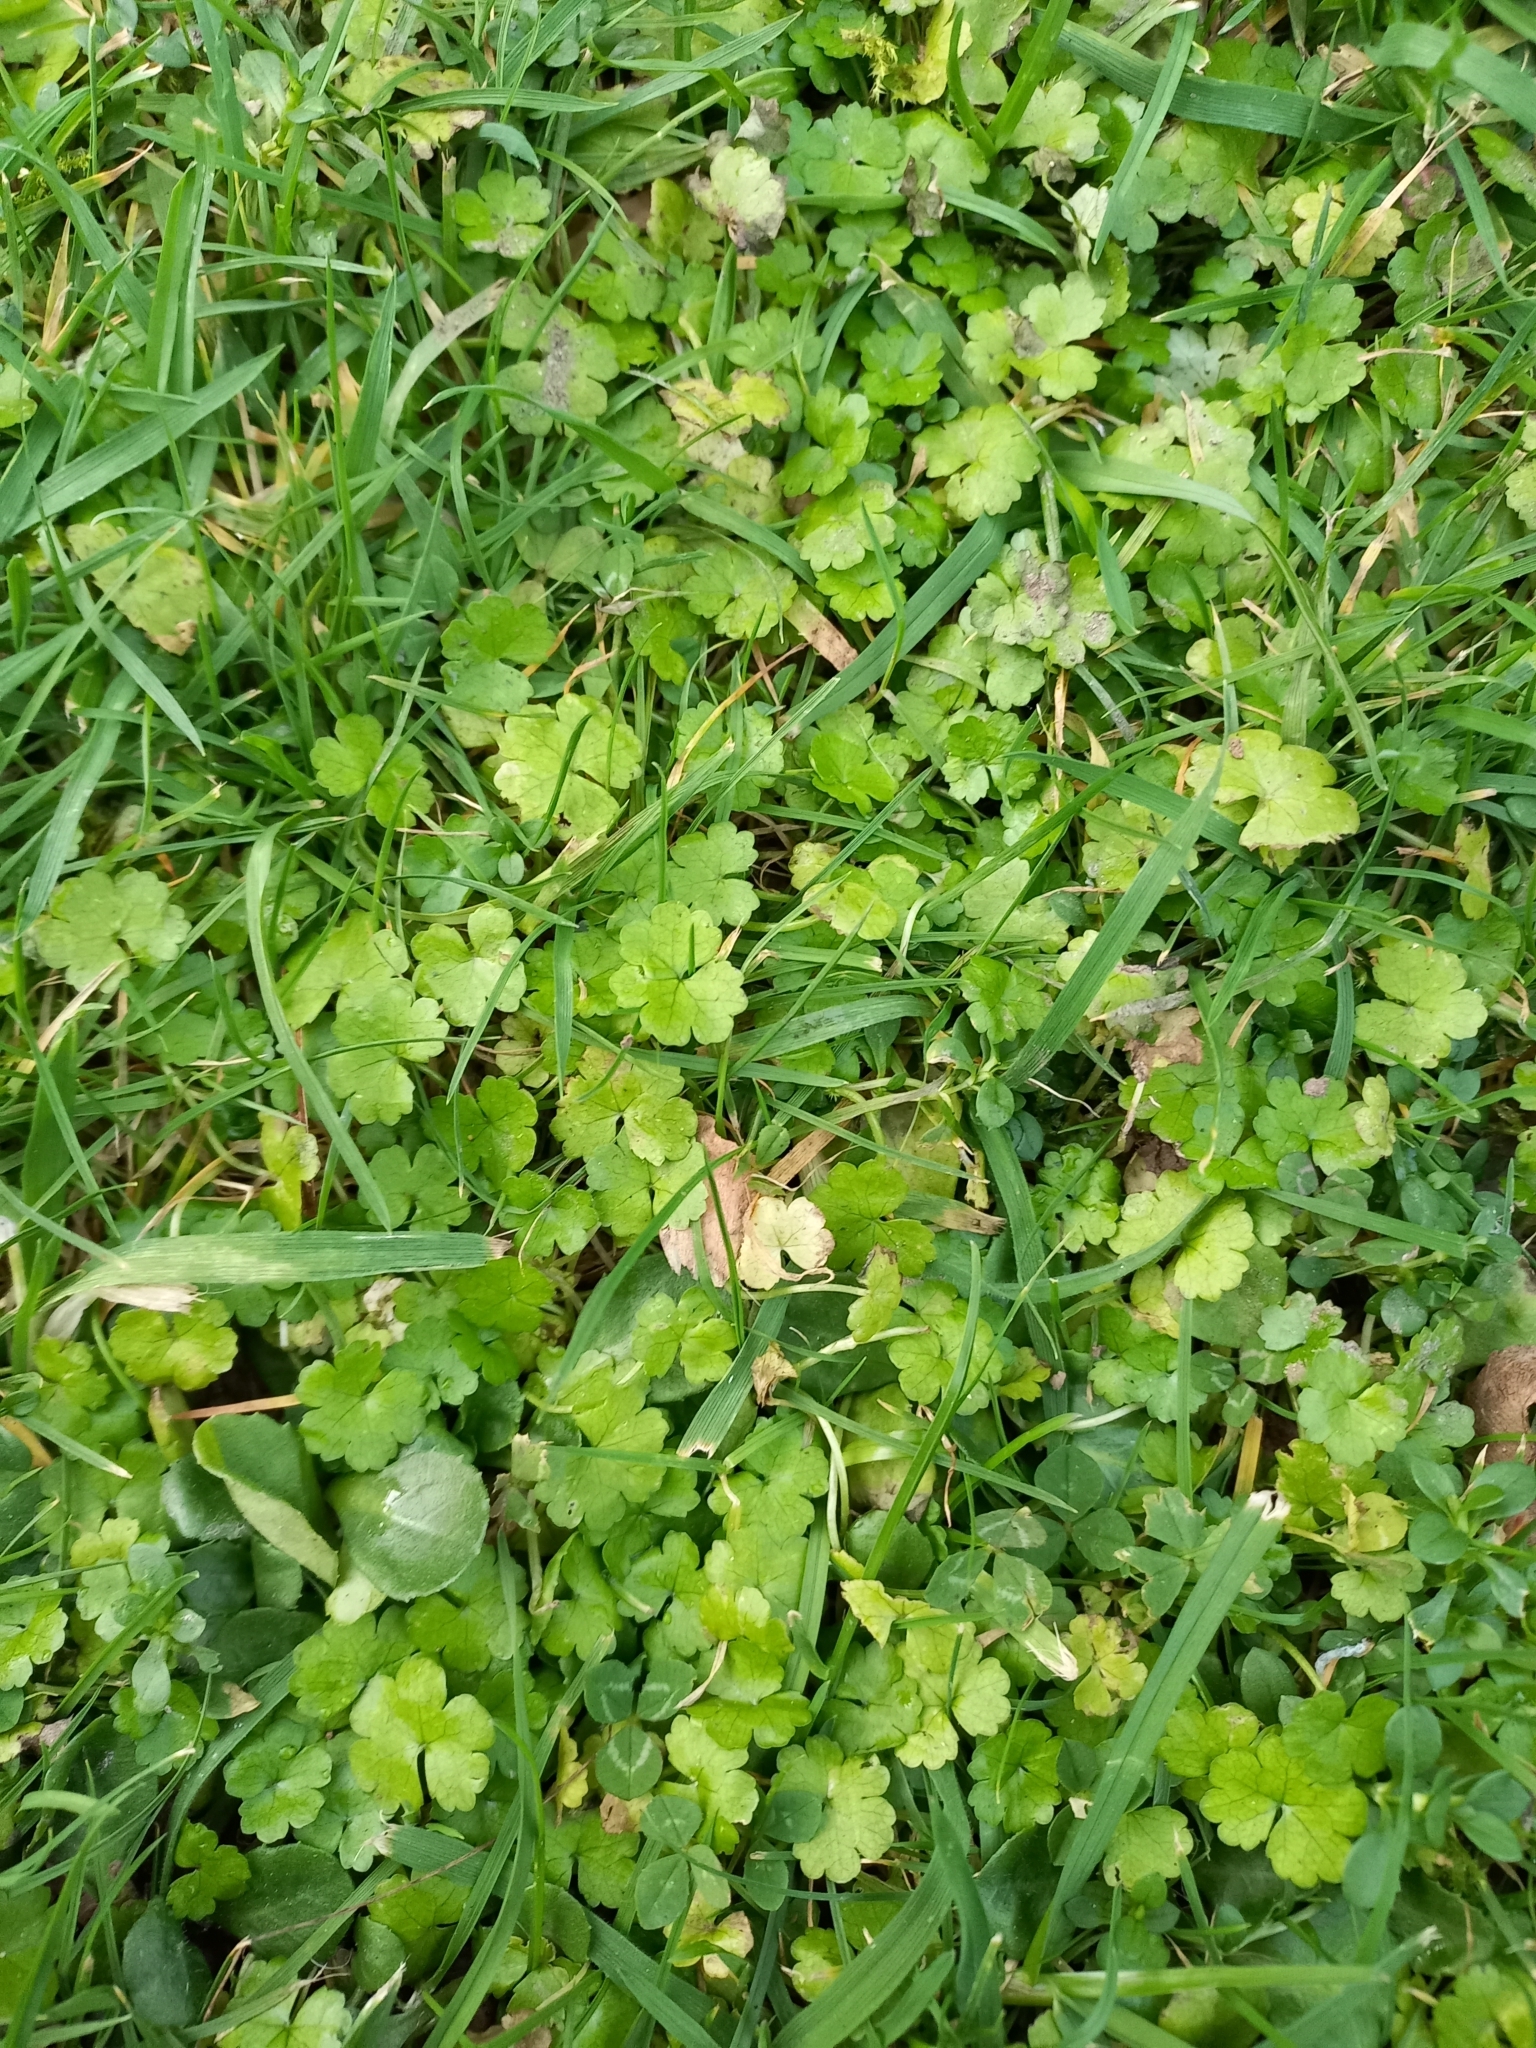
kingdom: Plantae
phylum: Tracheophyta
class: Magnoliopsida
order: Apiales
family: Araliaceae
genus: Hydrocotyle
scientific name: Hydrocotyle heteromeria
